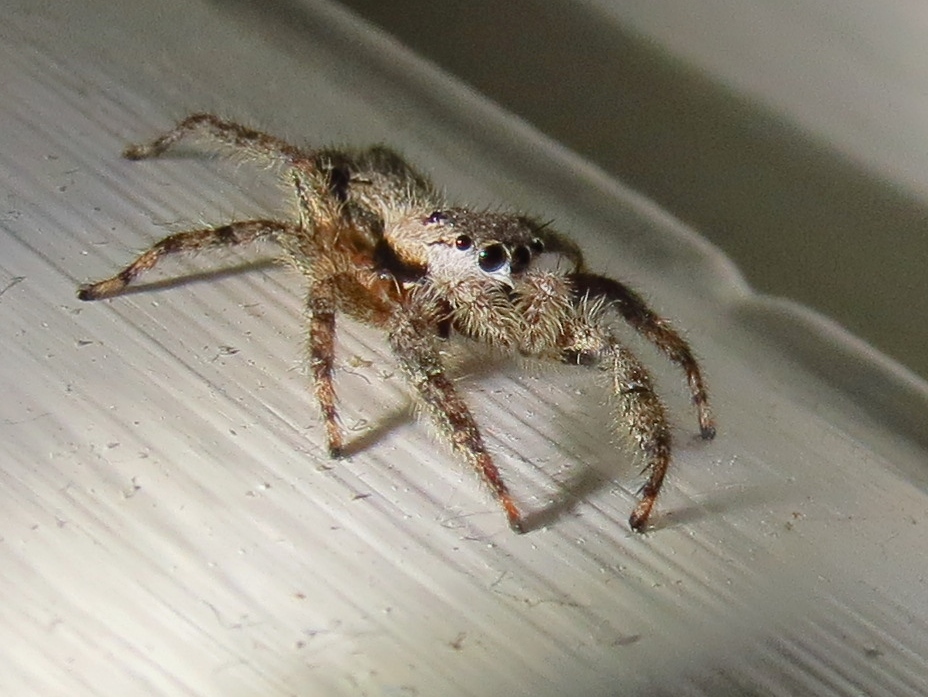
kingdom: Animalia
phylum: Arthropoda
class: Arachnida
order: Araneae
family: Salticidae
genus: Platycryptus
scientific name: Platycryptus undatus
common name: Tan jumping spider
